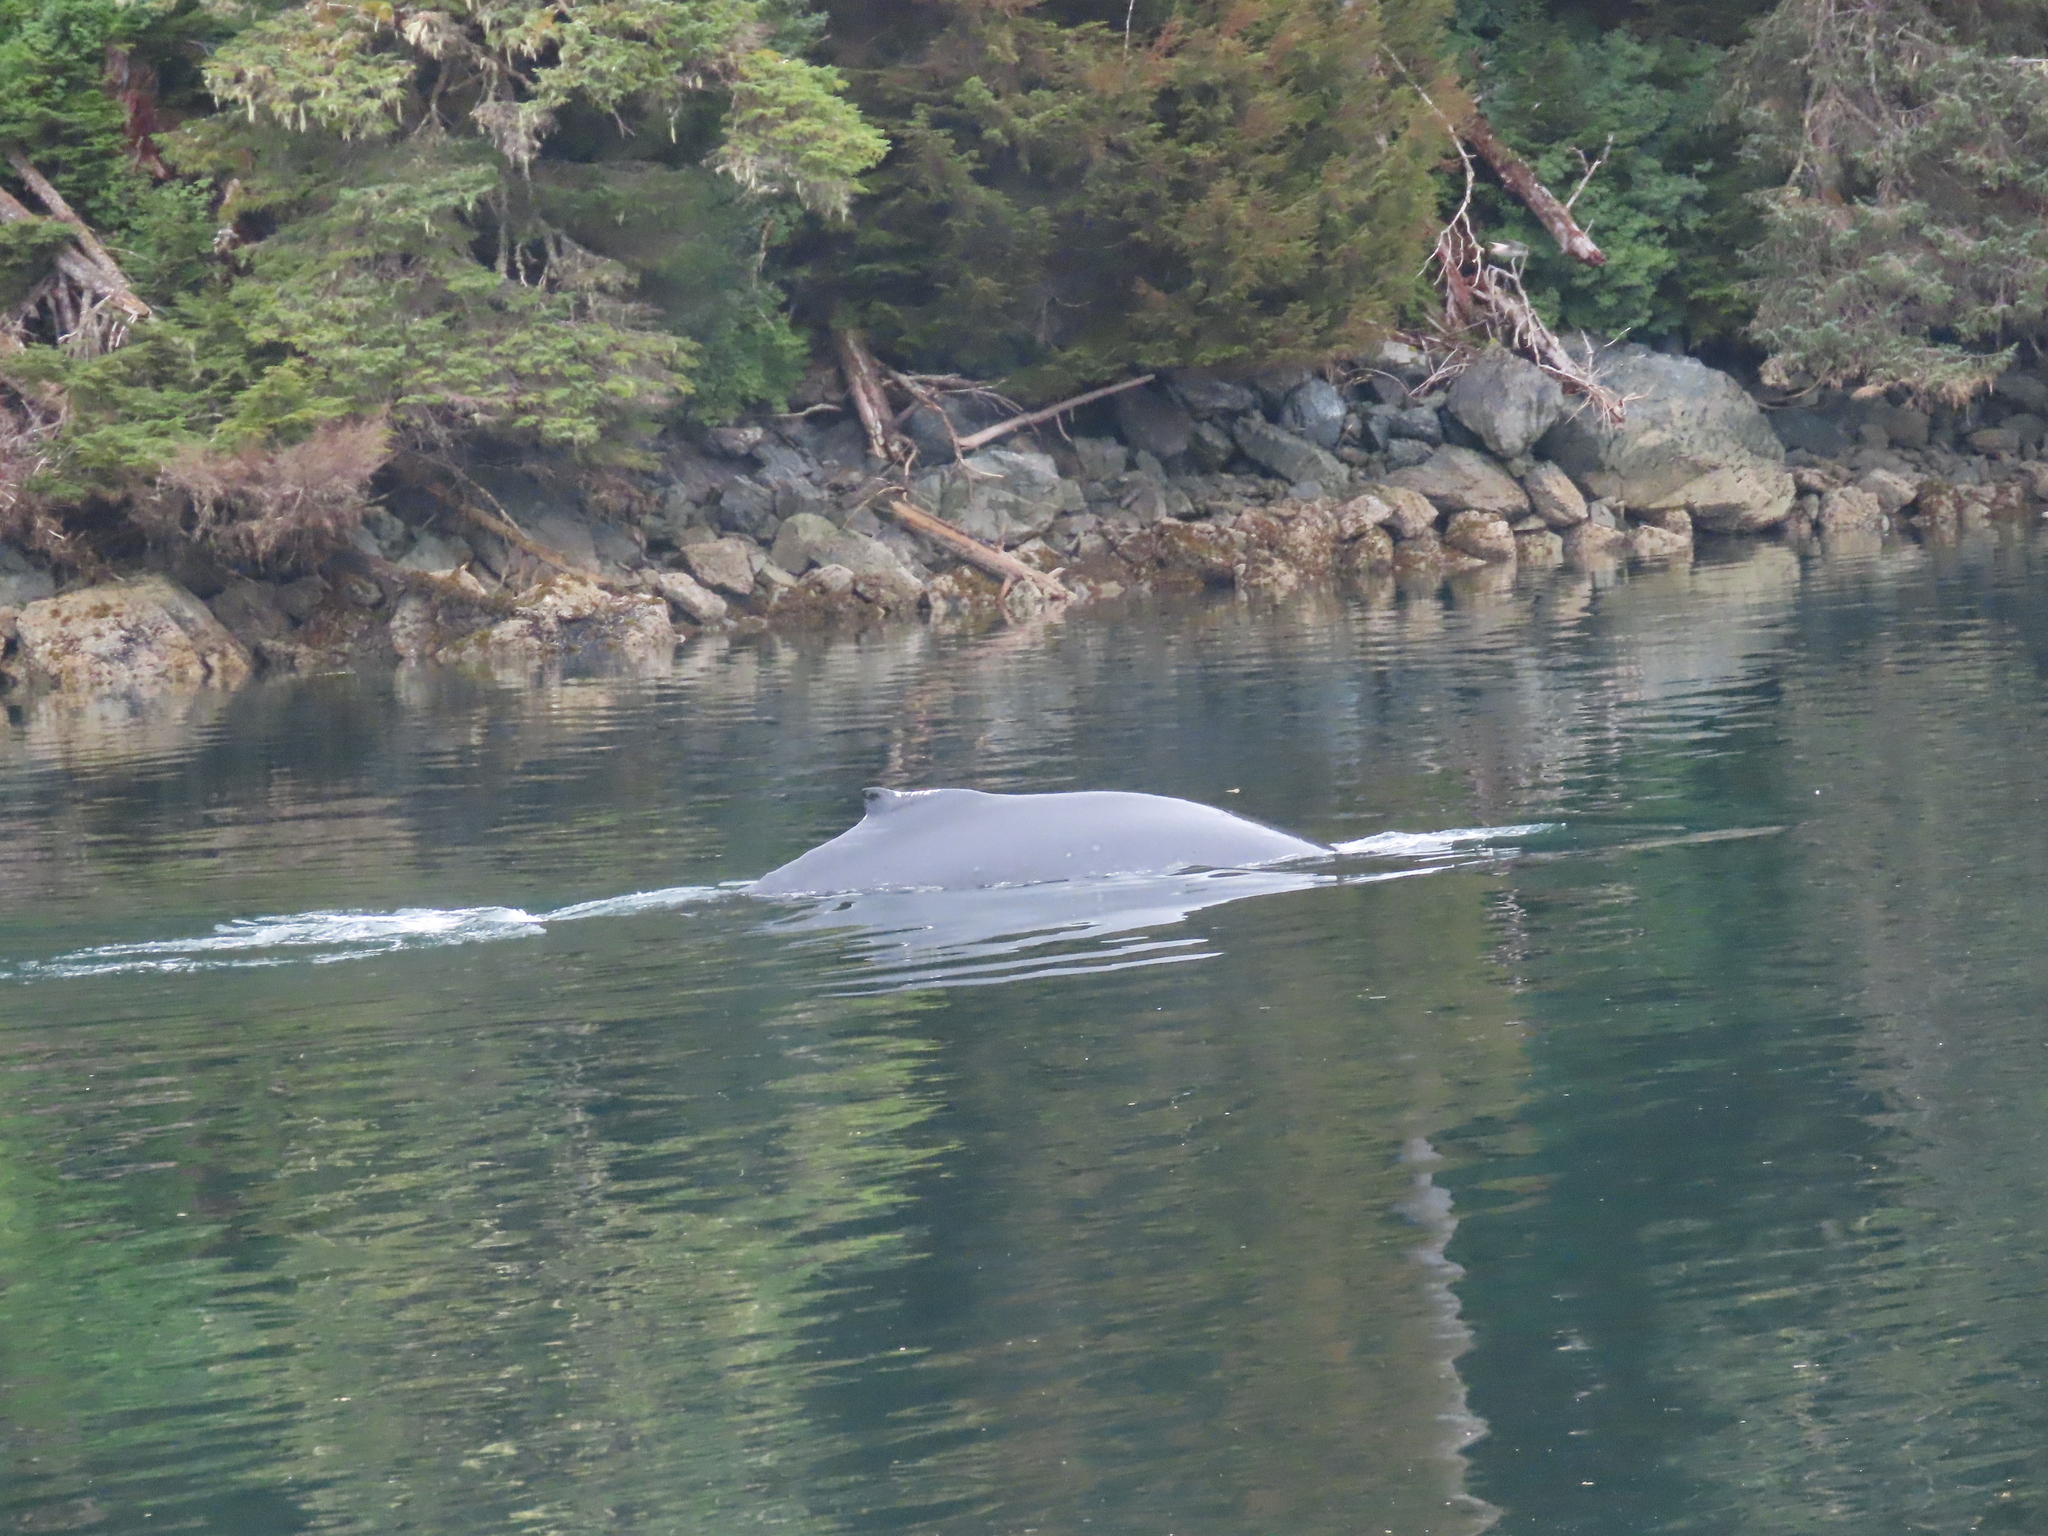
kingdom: Animalia
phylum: Chordata
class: Mammalia
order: Cetacea
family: Balaenopteridae
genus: Megaptera
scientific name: Megaptera novaeangliae
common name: Humpback whale
